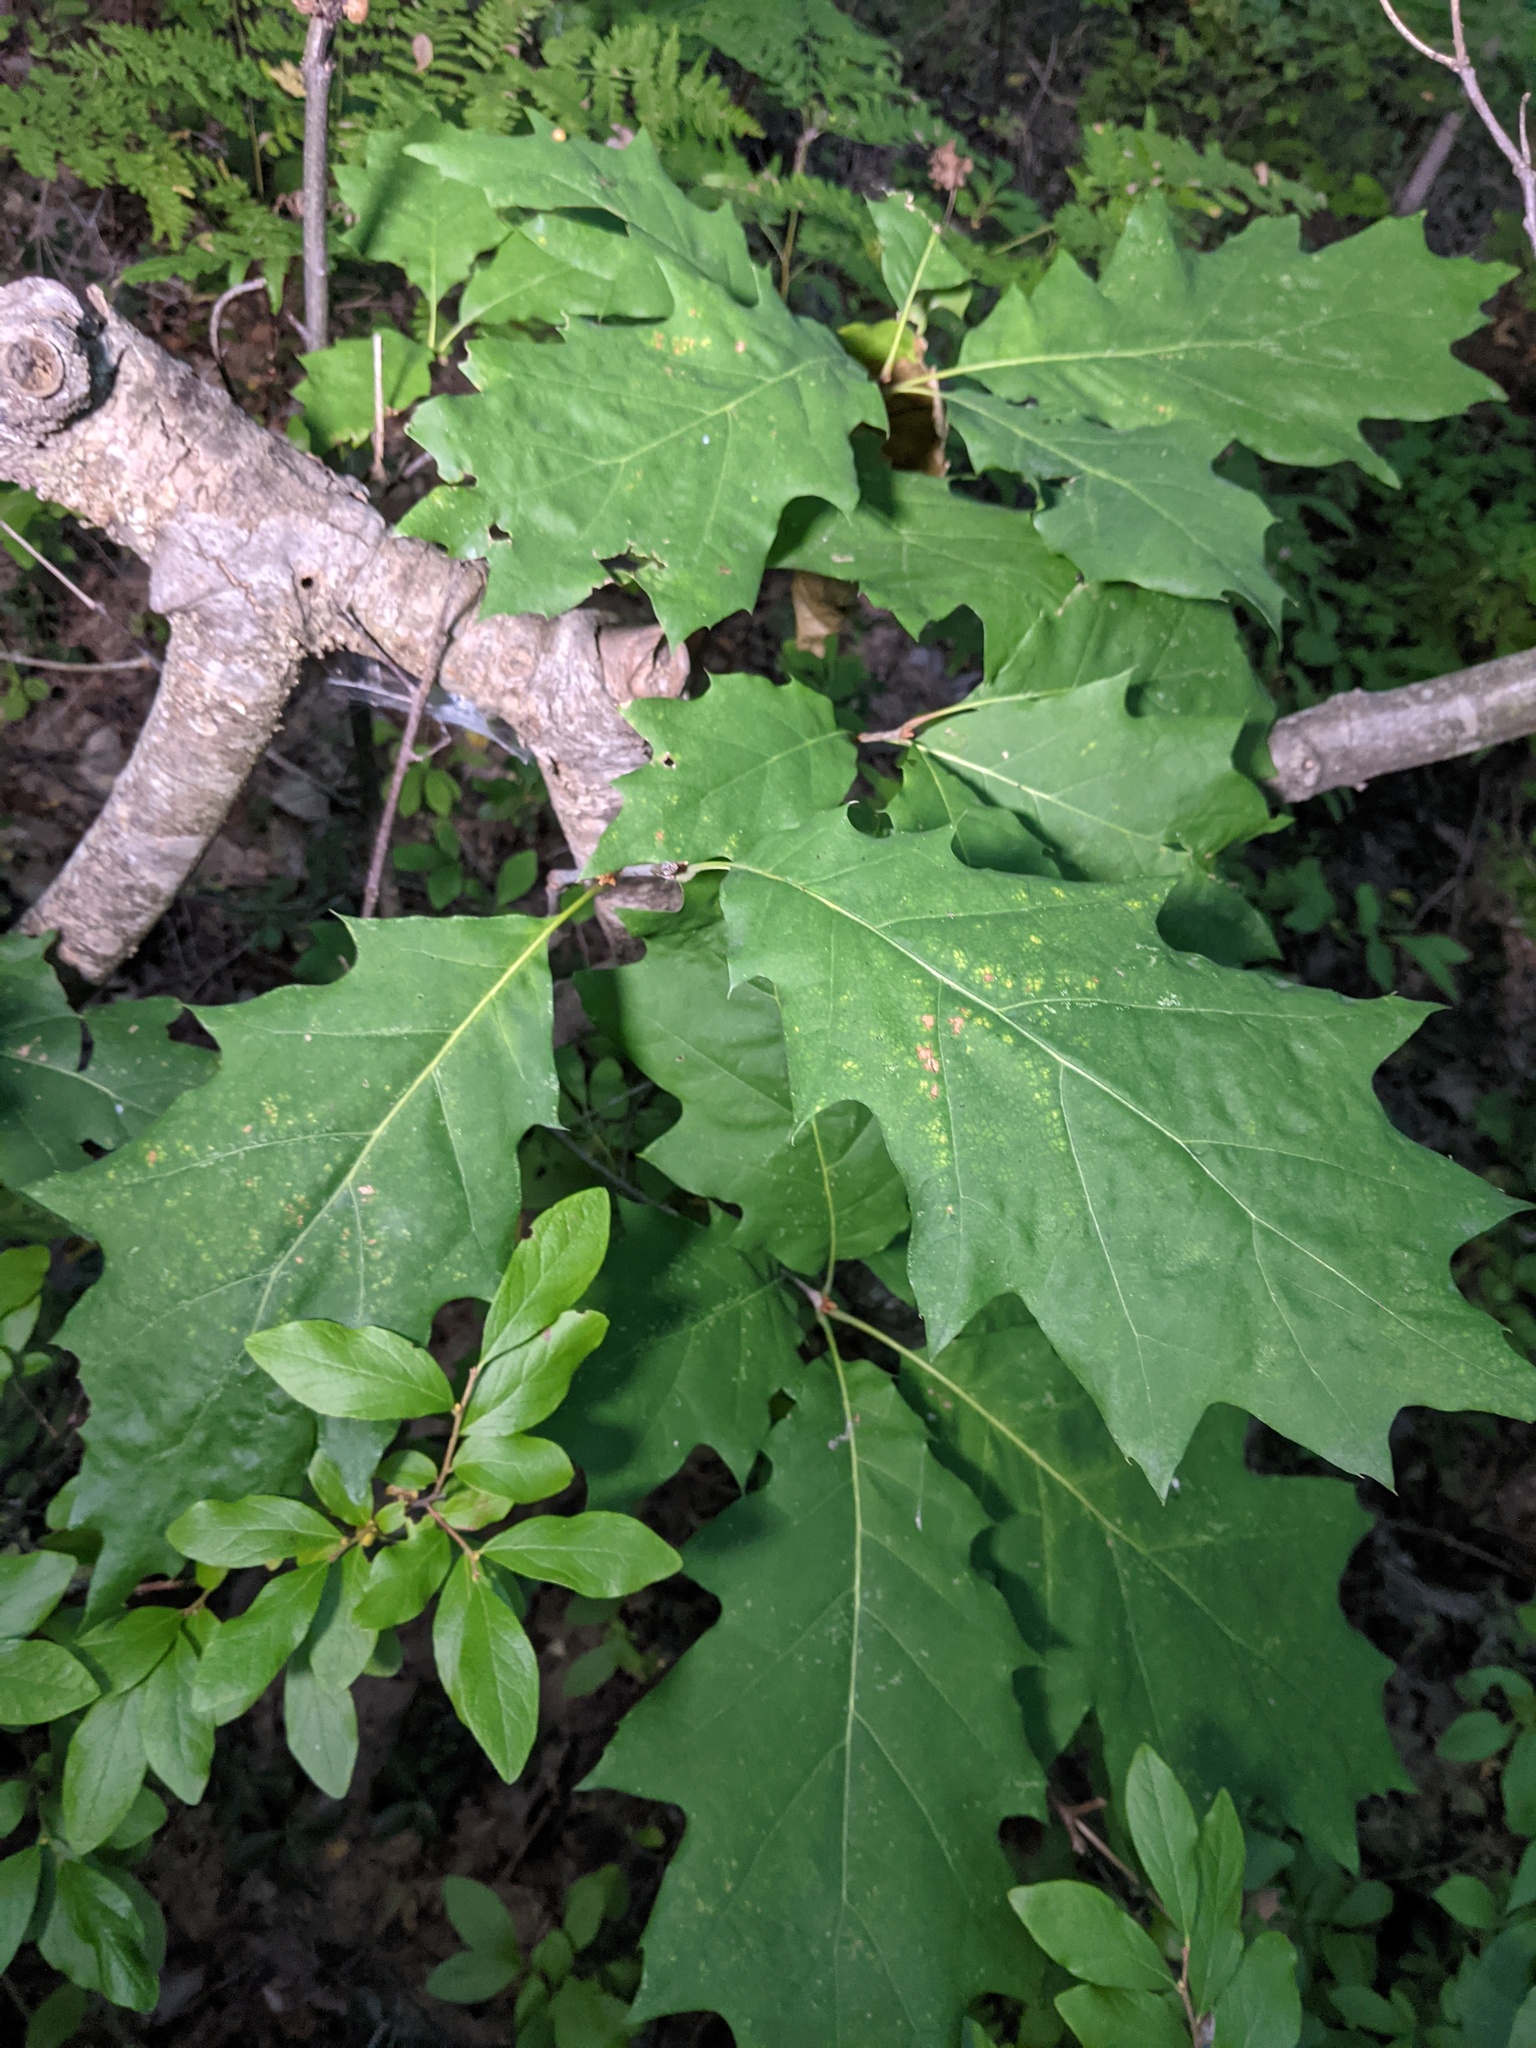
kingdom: Plantae
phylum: Tracheophyta
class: Magnoliopsida
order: Fagales
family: Fagaceae
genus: Quercus
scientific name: Quercus rubra
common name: Red oak
